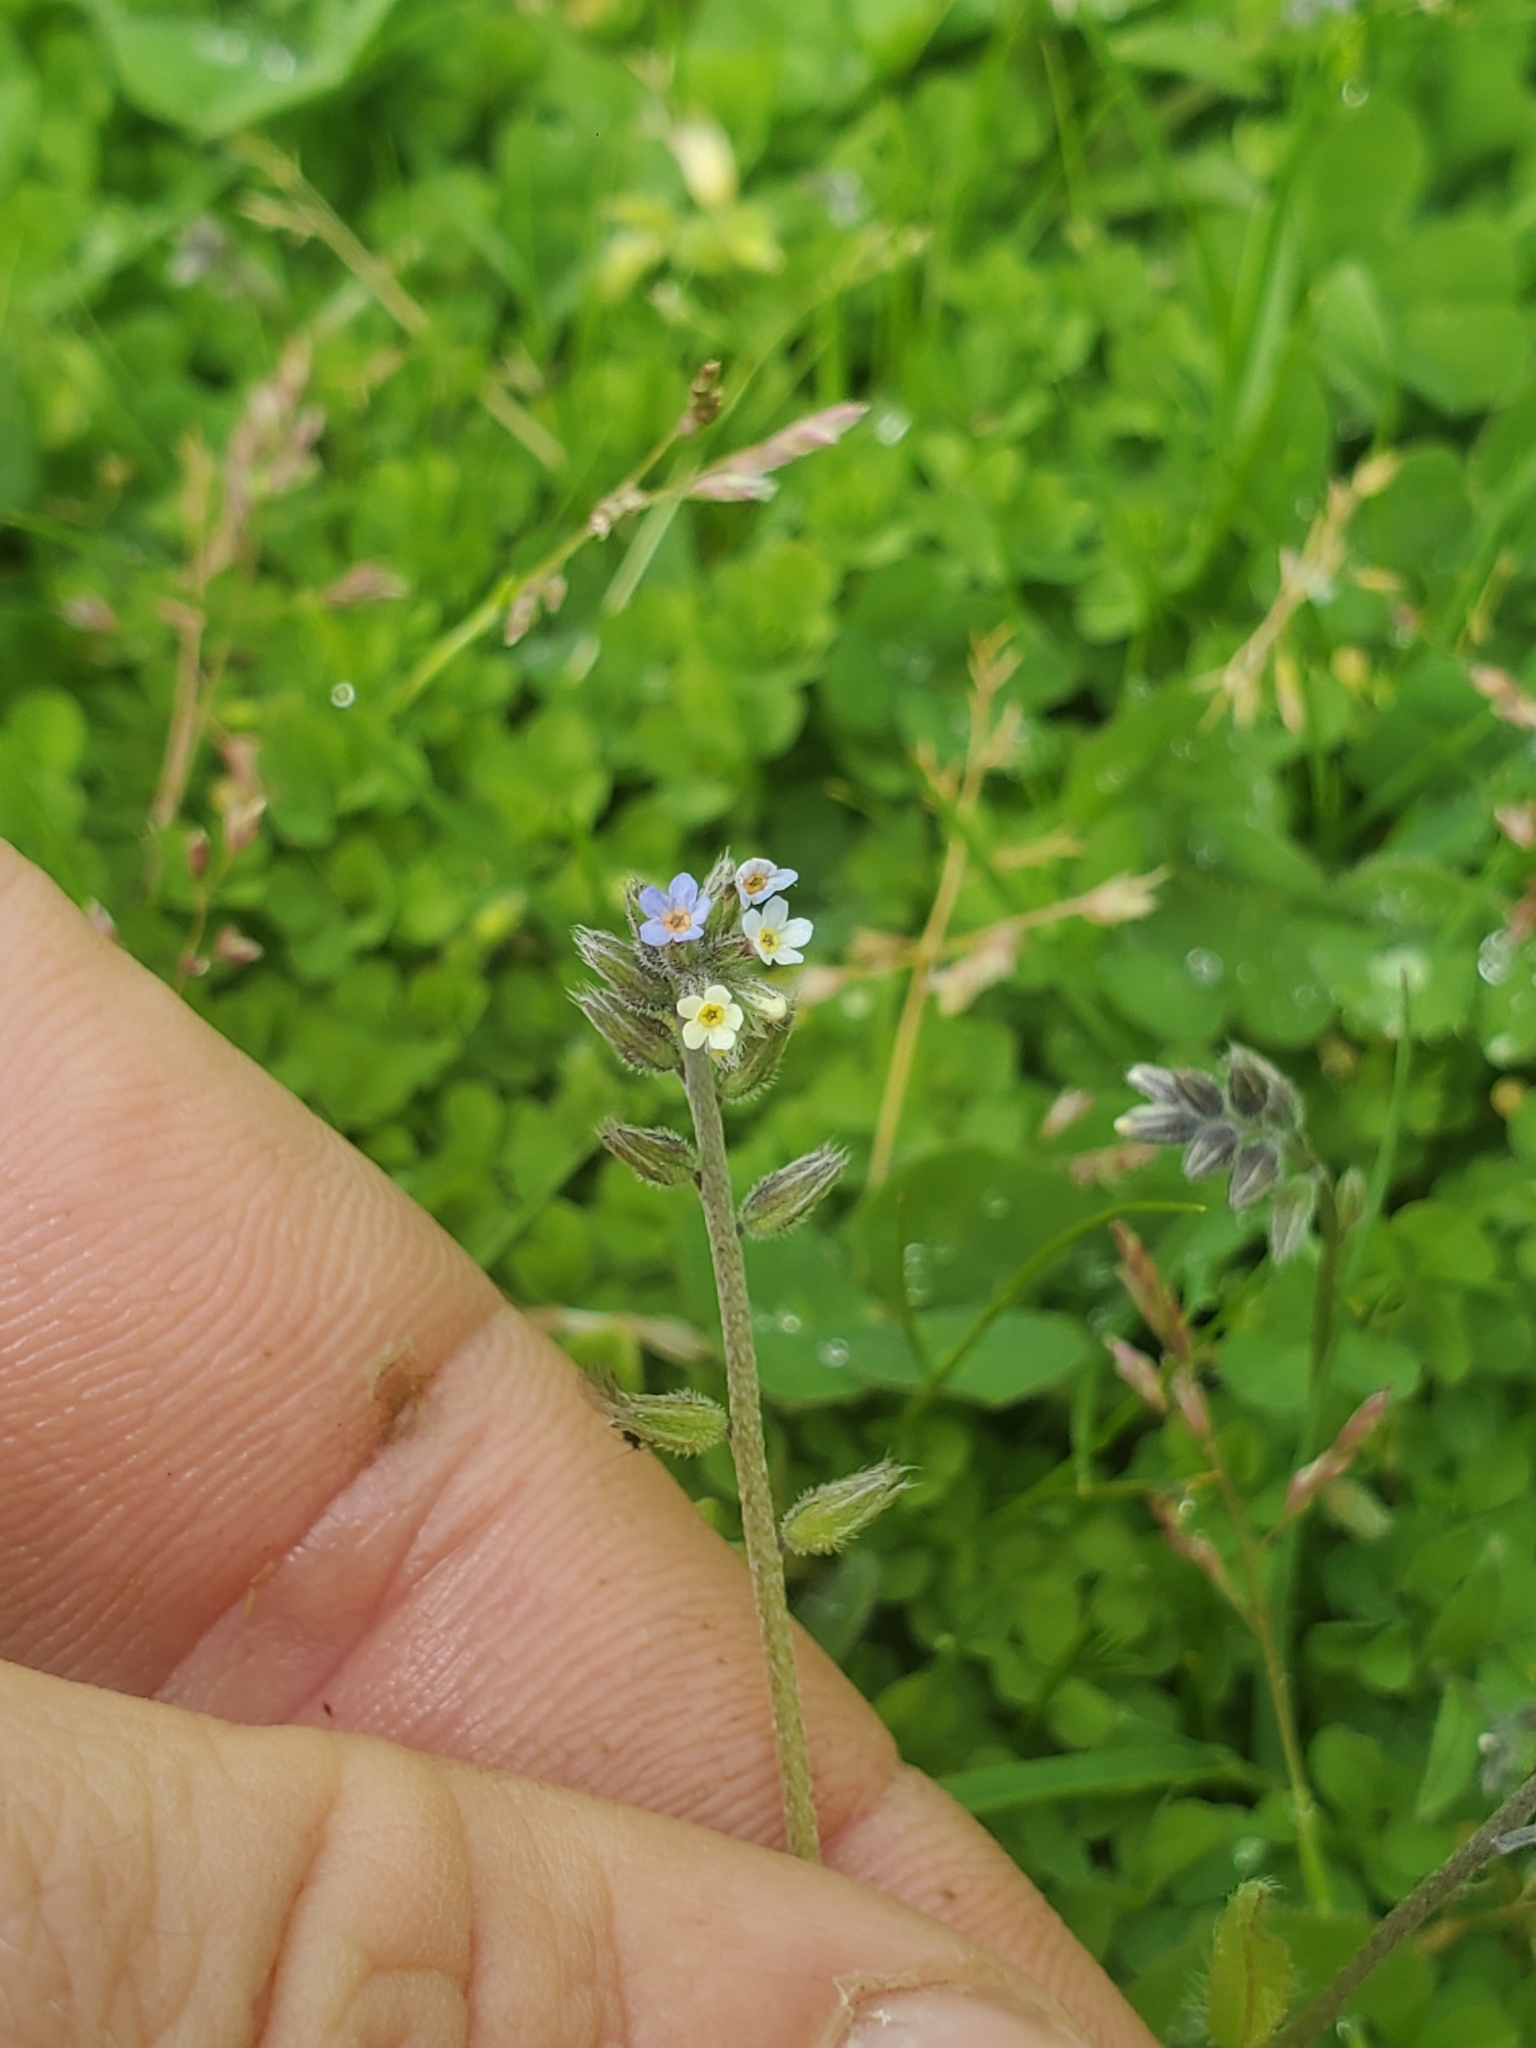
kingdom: Plantae
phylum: Tracheophyta
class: Magnoliopsida
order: Boraginales
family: Boraginaceae
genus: Myosotis
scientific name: Myosotis discolor
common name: Changing forget-me-not
